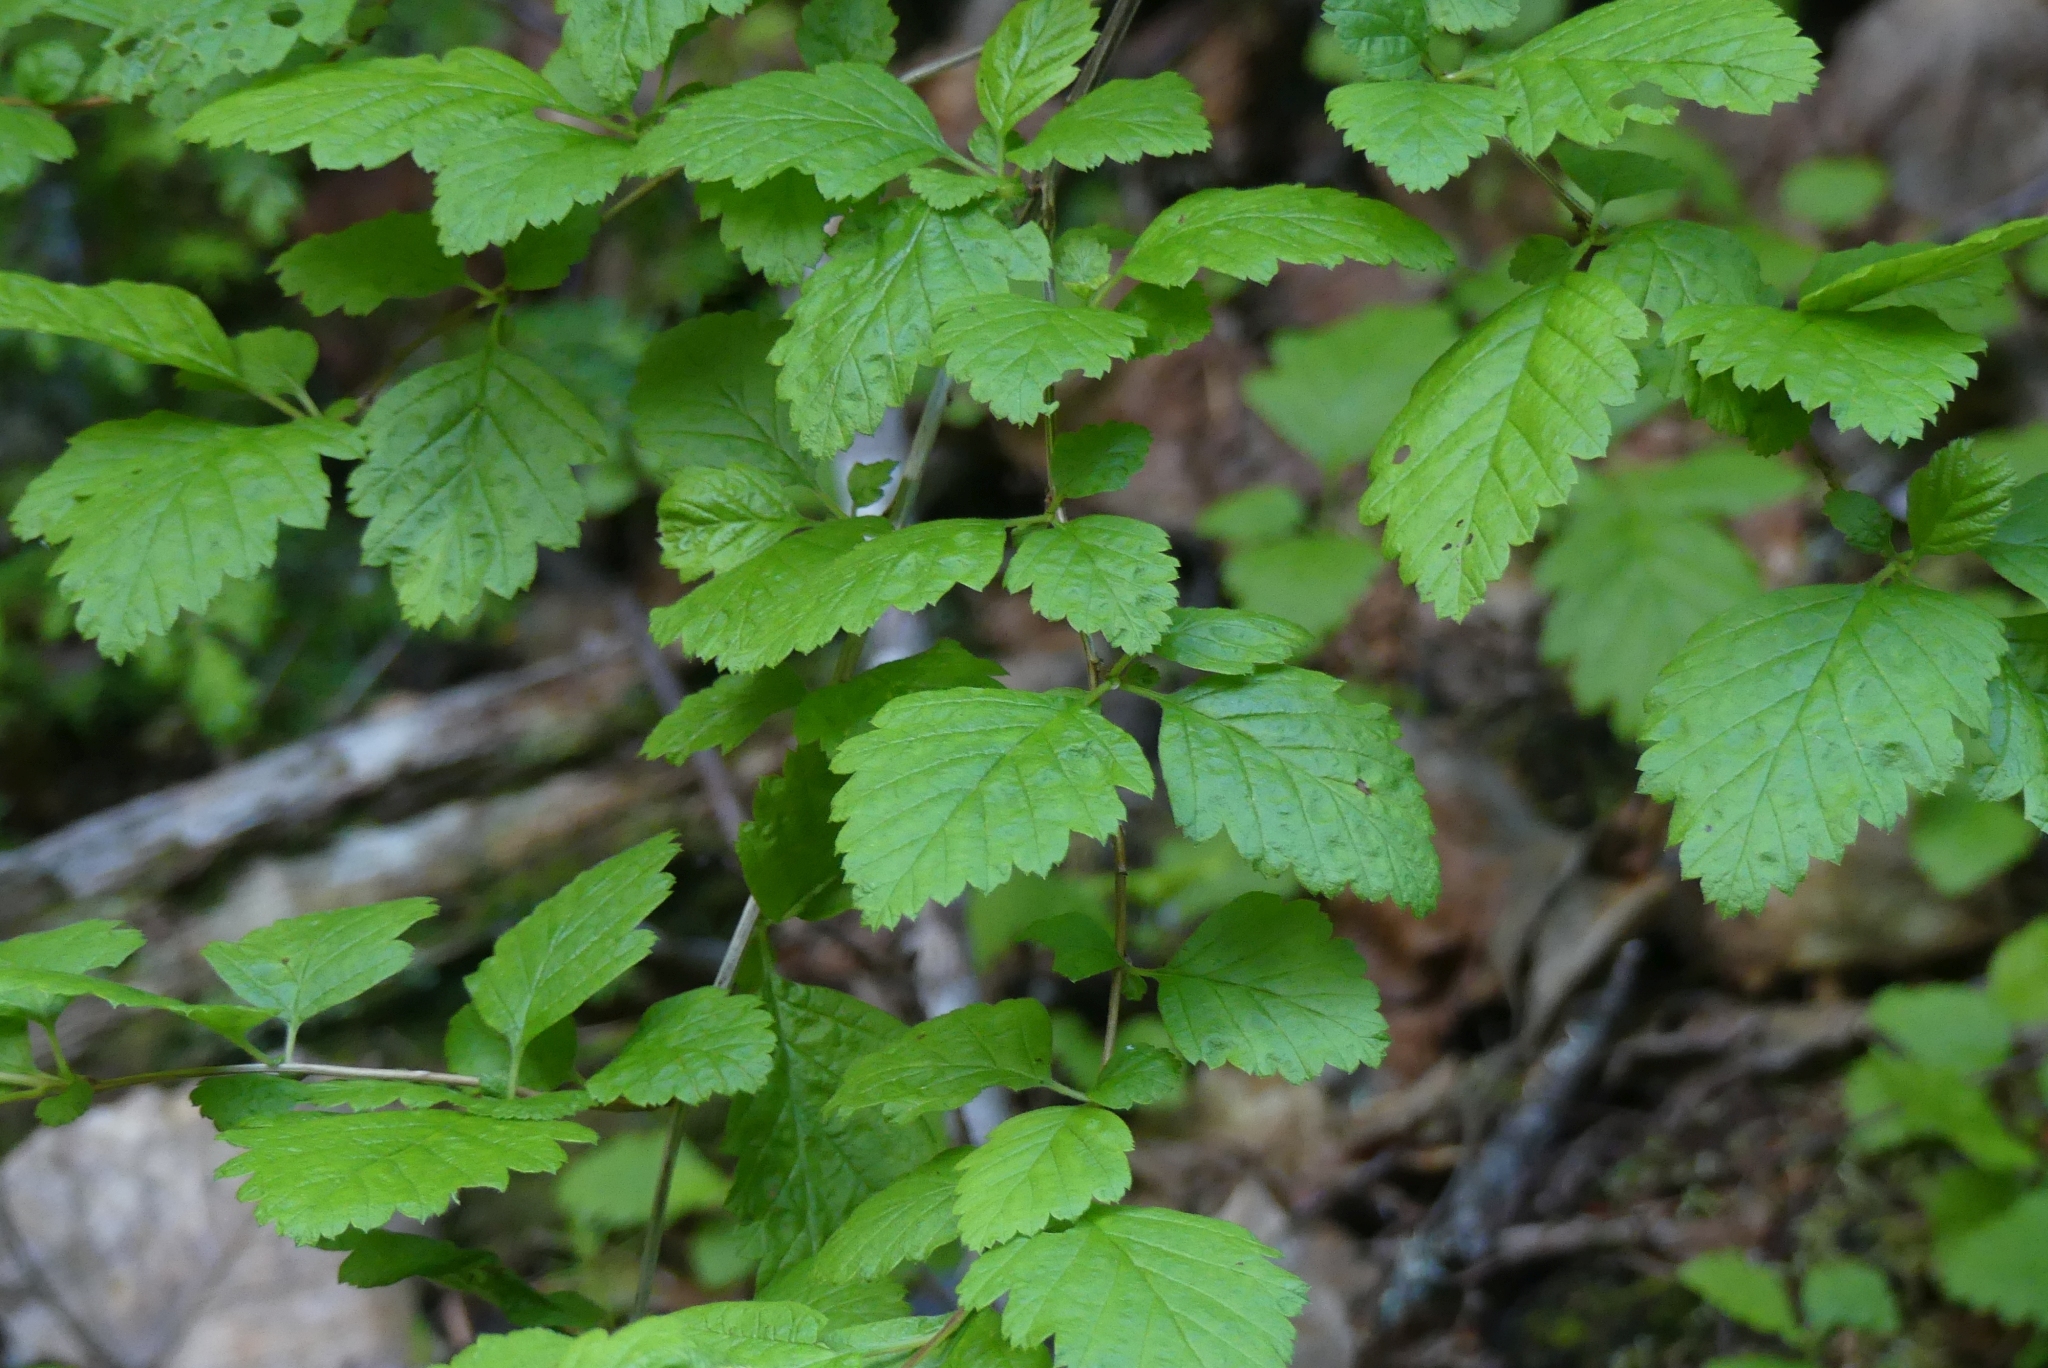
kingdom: Plantae
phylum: Tracheophyta
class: Magnoliopsida
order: Rosales
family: Rosaceae
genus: Holodiscus
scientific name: Holodiscus discolor
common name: Oceanspray
